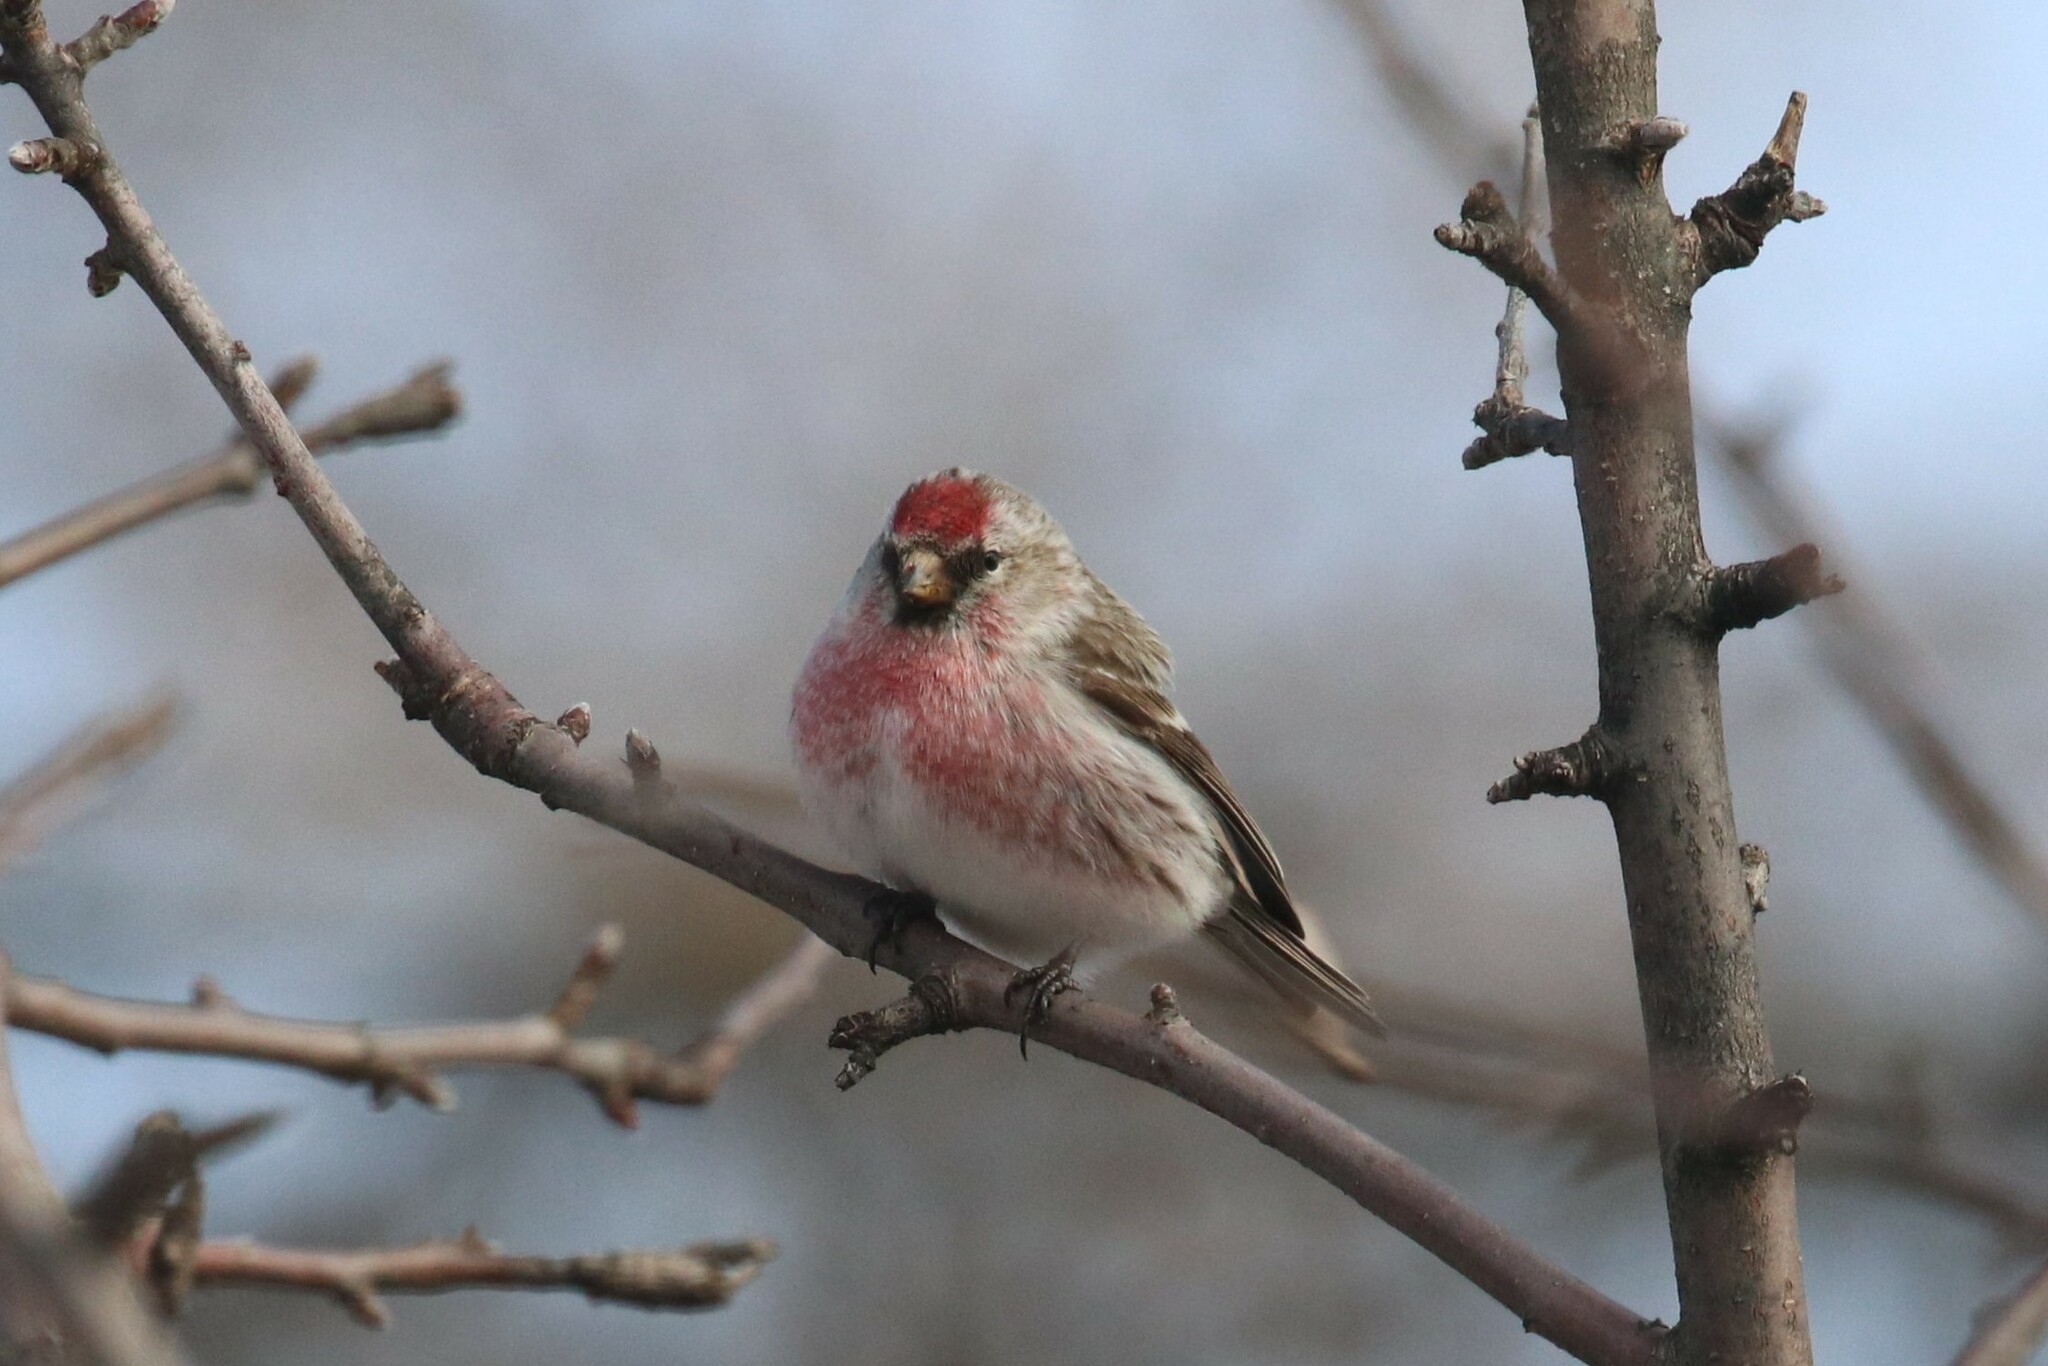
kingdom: Animalia
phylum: Chordata
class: Aves
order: Passeriformes
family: Fringillidae
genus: Acanthis
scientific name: Acanthis flammea
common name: Common redpoll
